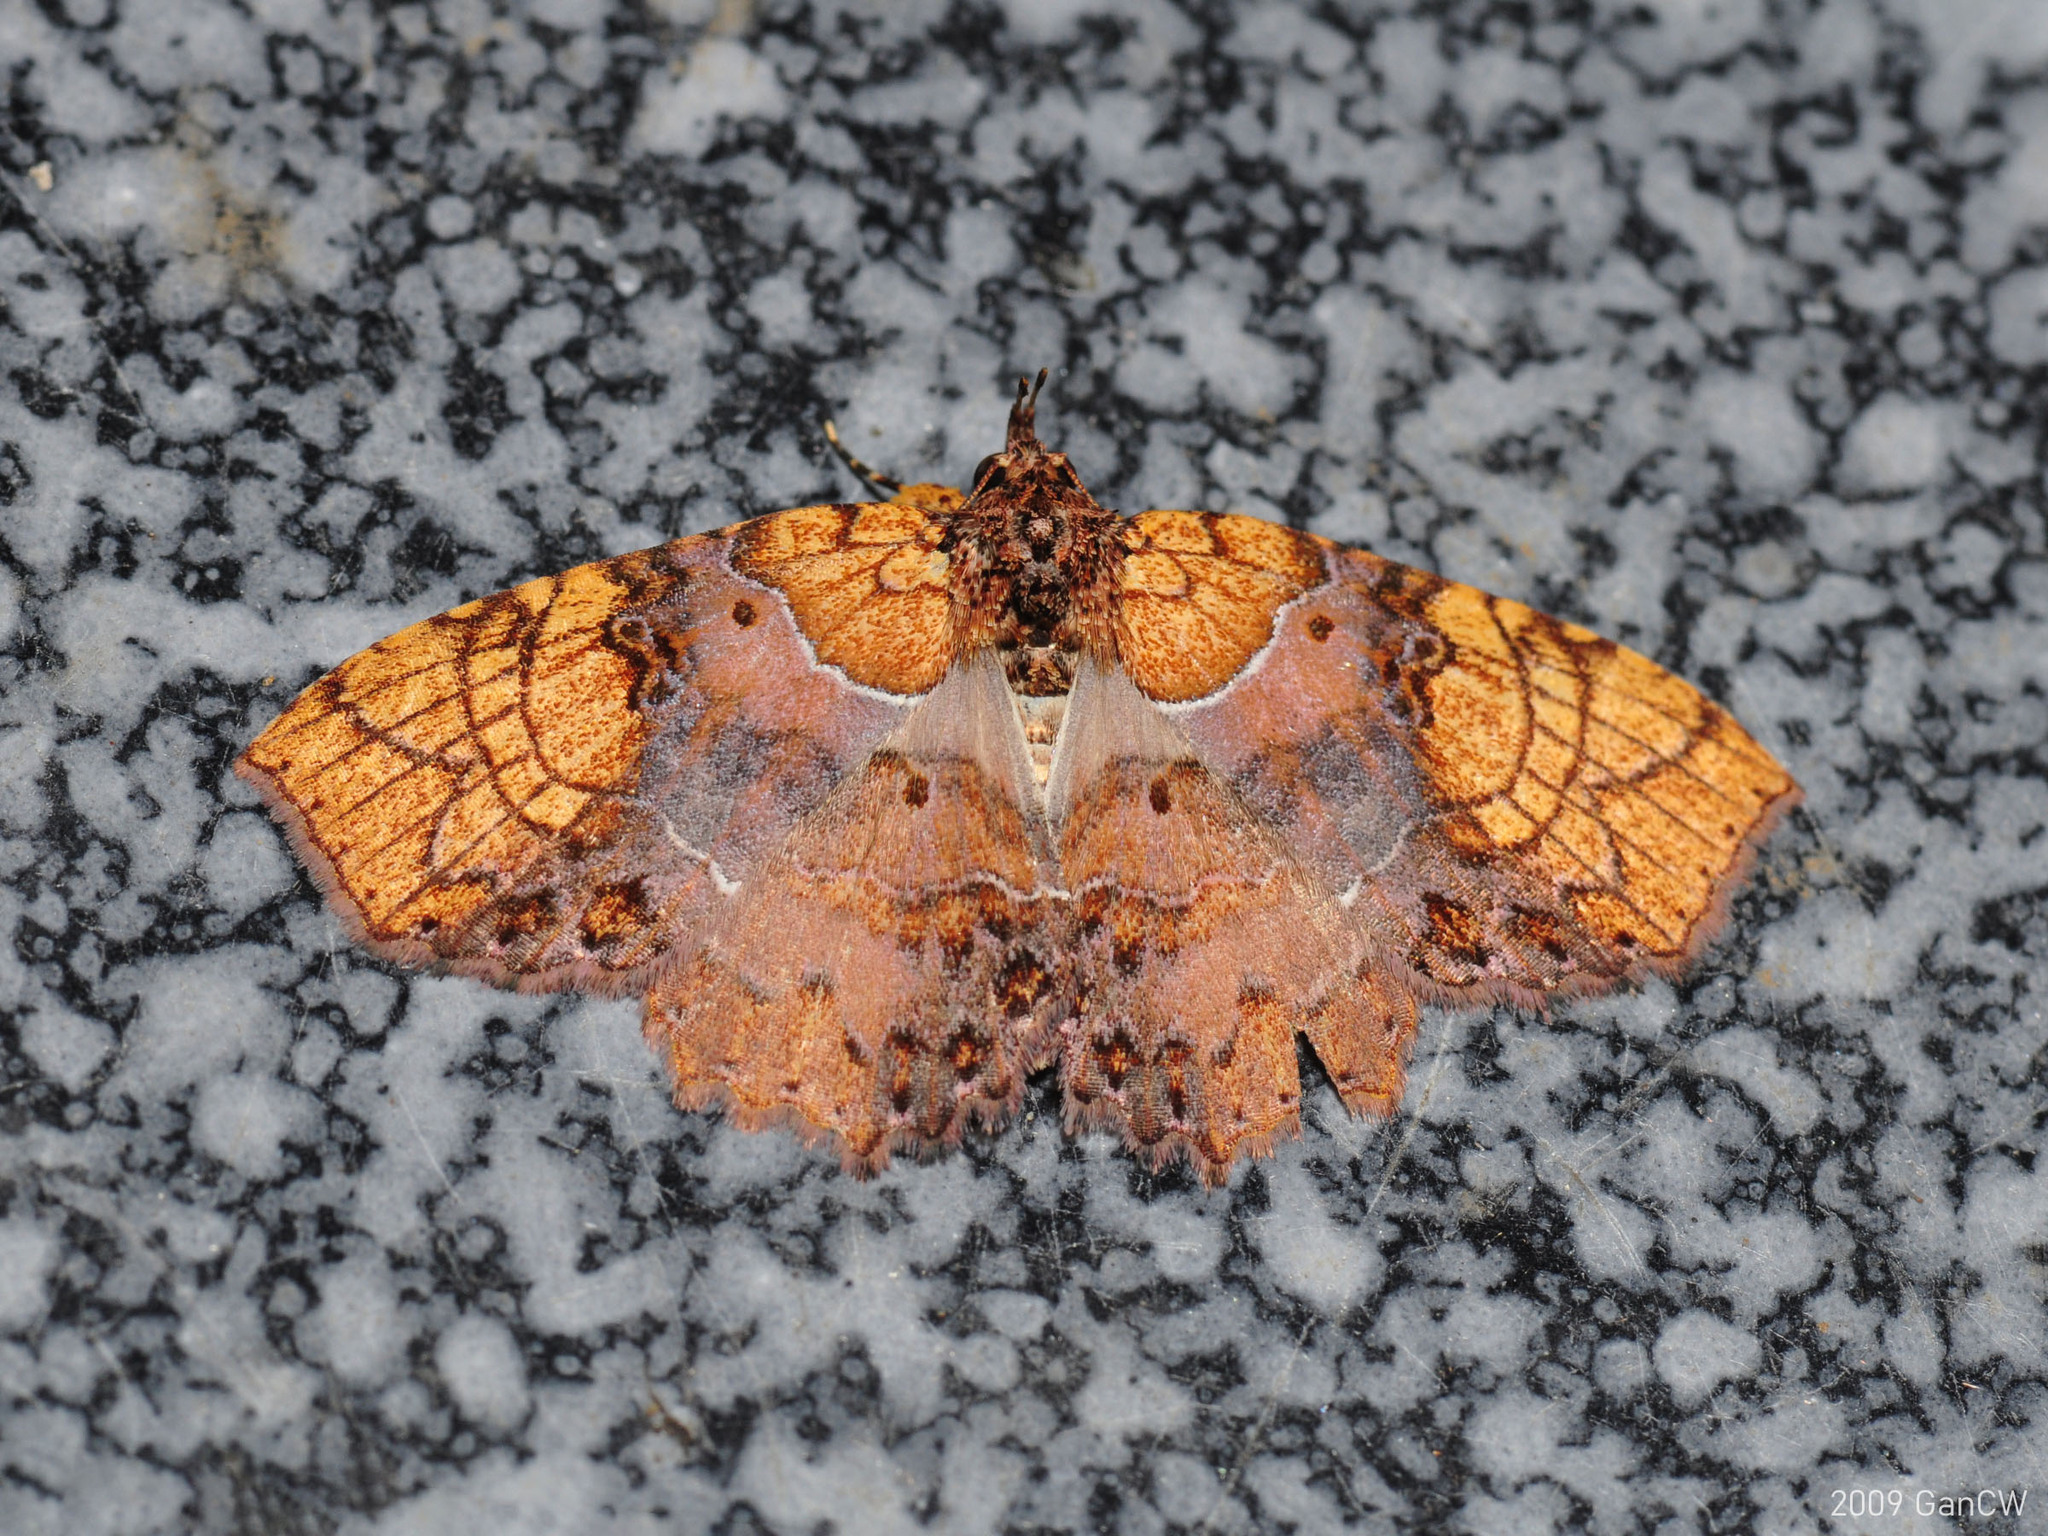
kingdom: Animalia
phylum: Arthropoda
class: Insecta
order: Lepidoptera
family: Erebidae
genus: Tamba
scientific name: Tamba euryodia
